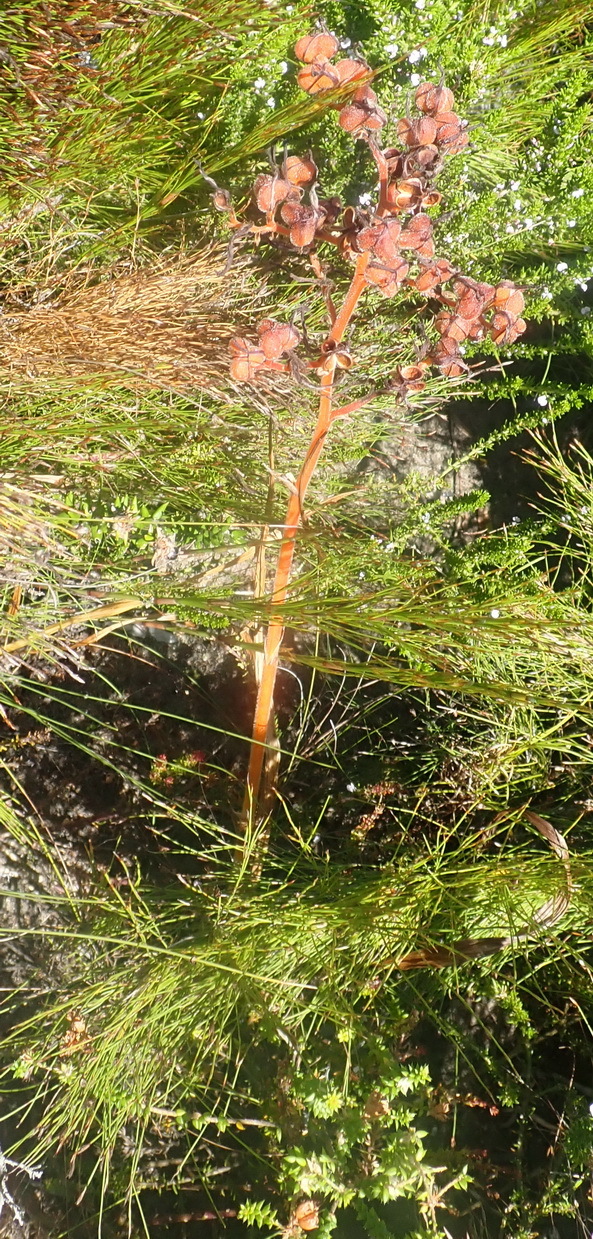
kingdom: Plantae
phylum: Tracheophyta
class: Liliopsida
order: Commelinales
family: Haemodoraceae
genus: Wachendorfia
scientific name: Wachendorfia paniculata
